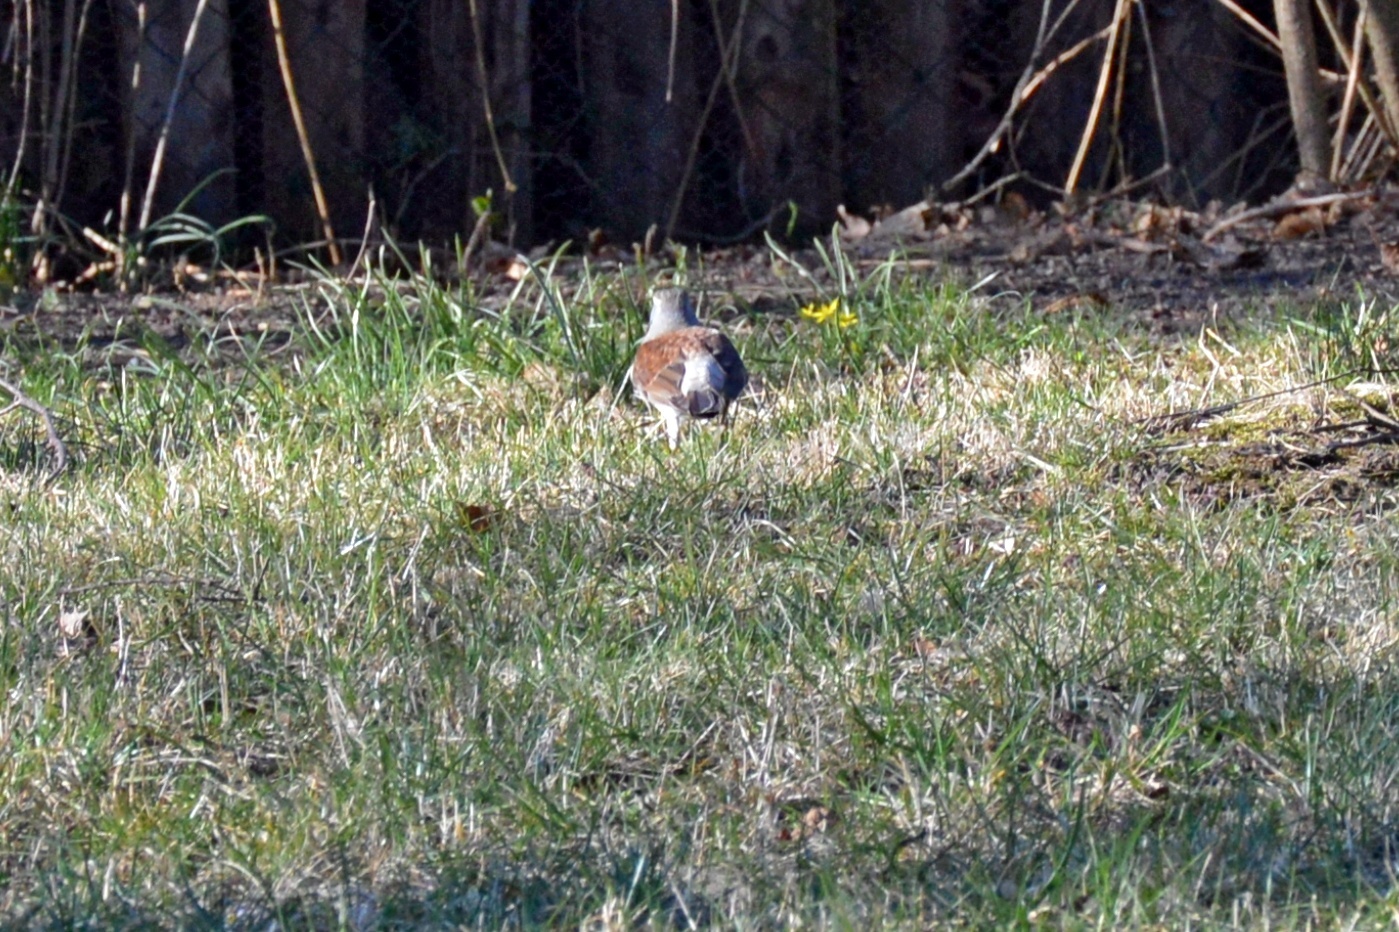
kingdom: Animalia
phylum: Chordata
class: Aves
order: Passeriformes
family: Turdidae
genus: Turdus
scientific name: Turdus pilaris
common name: Fieldfare
